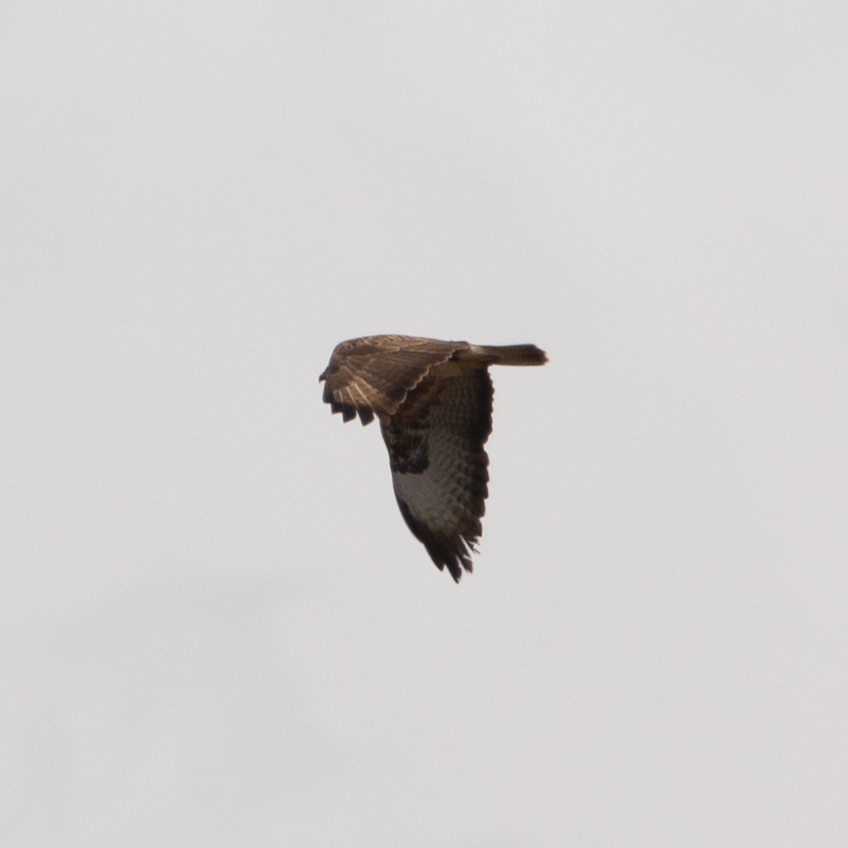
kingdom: Animalia
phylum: Chordata
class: Aves
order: Accipitriformes
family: Accipitridae
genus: Buteo
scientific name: Buteo buteo
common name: Common buzzard
